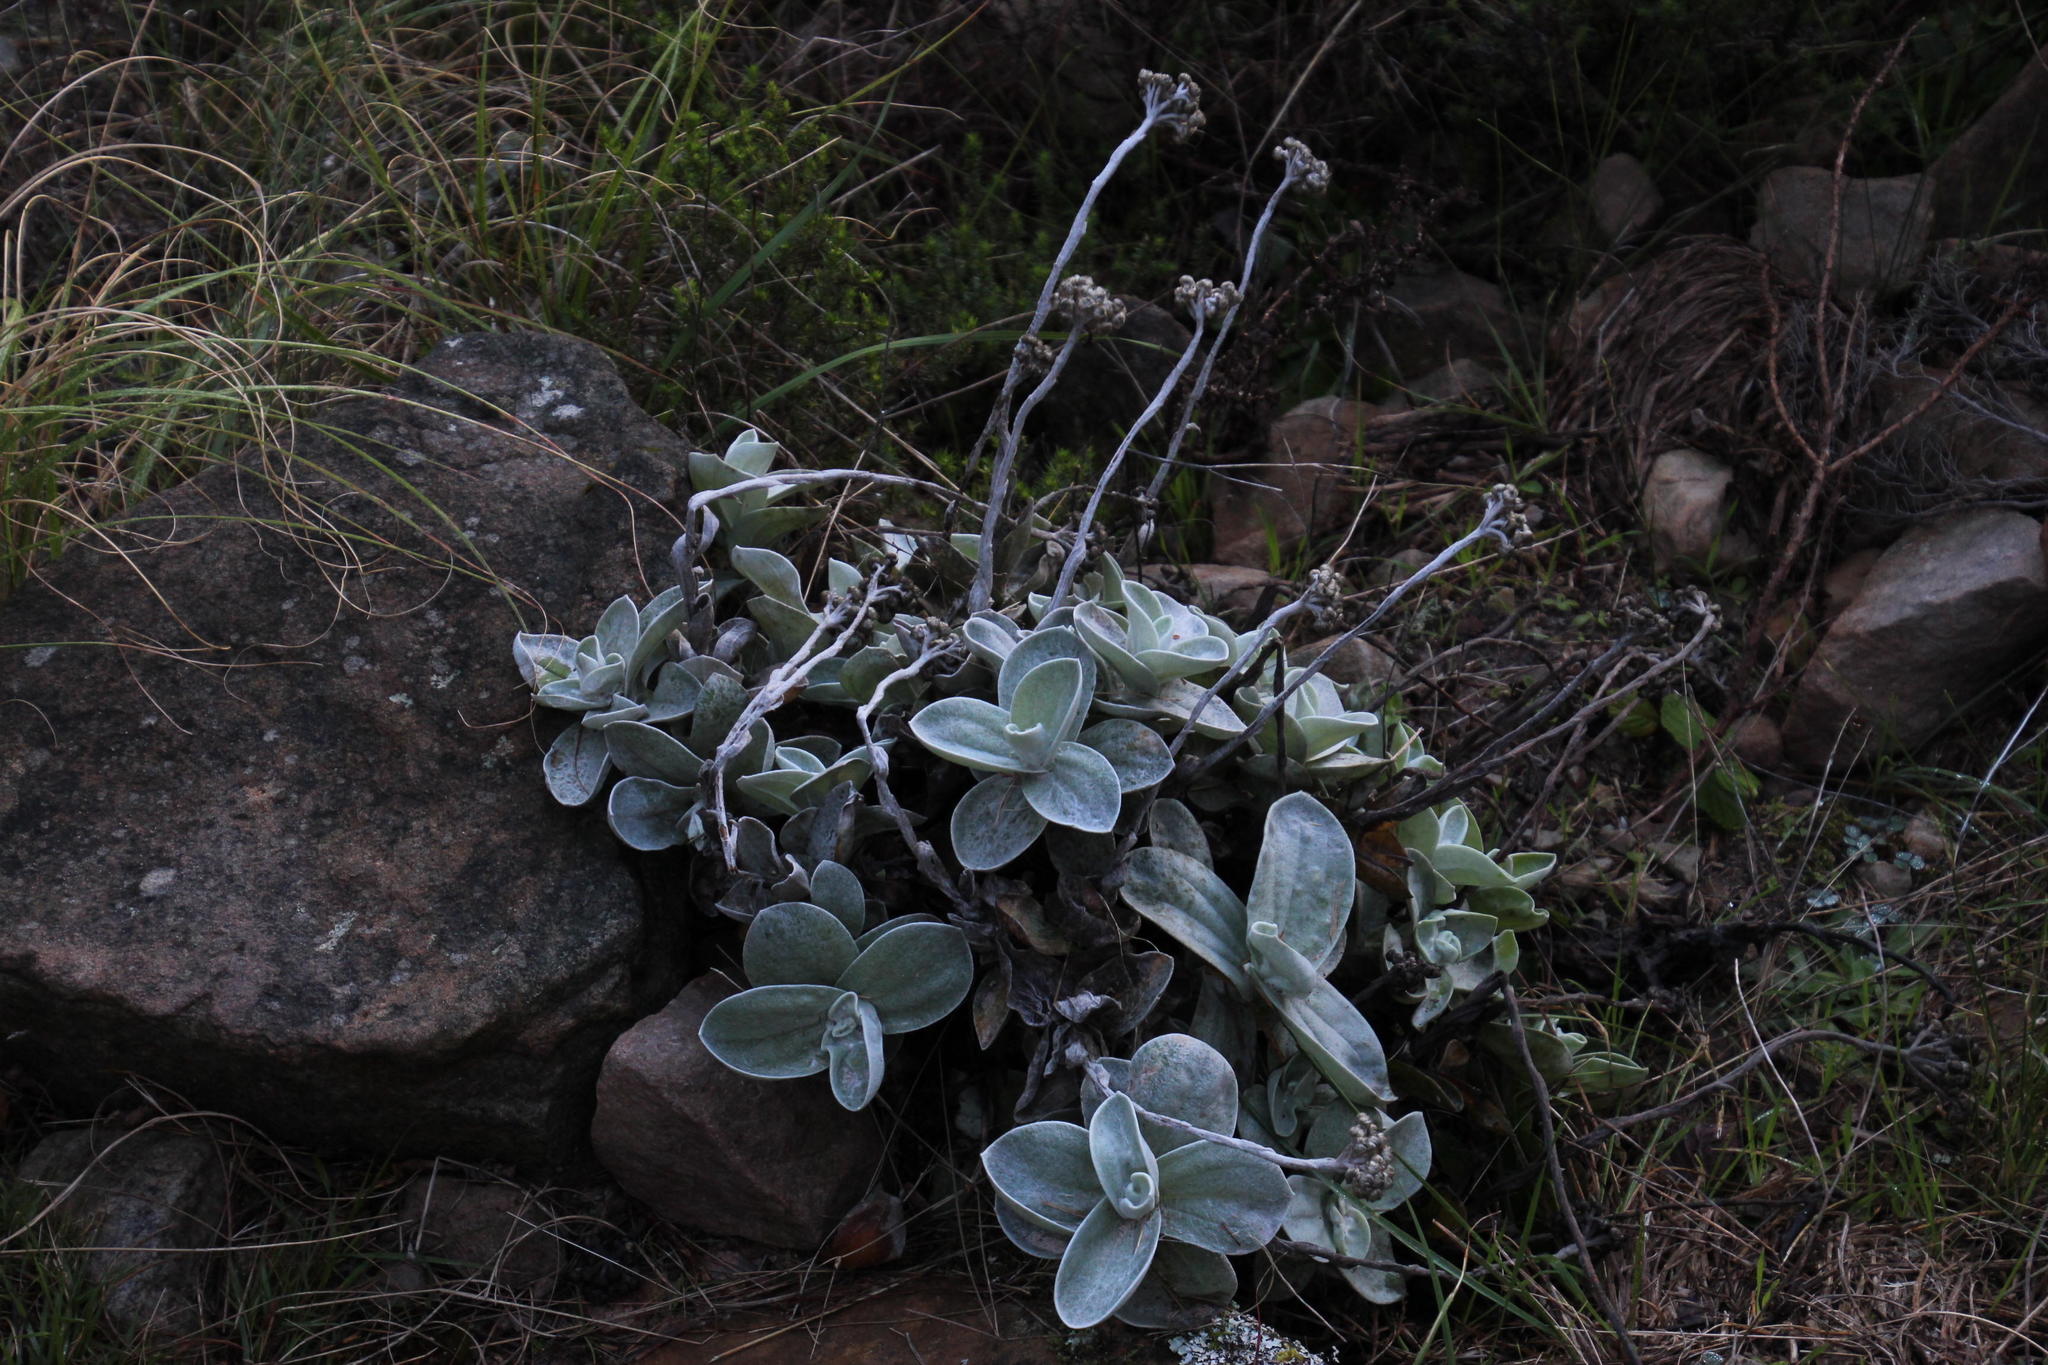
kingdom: Plantae
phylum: Tracheophyta
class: Magnoliopsida
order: Asterales
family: Asteraceae
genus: Helichrysum
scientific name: Helichrysum grandiflorum
